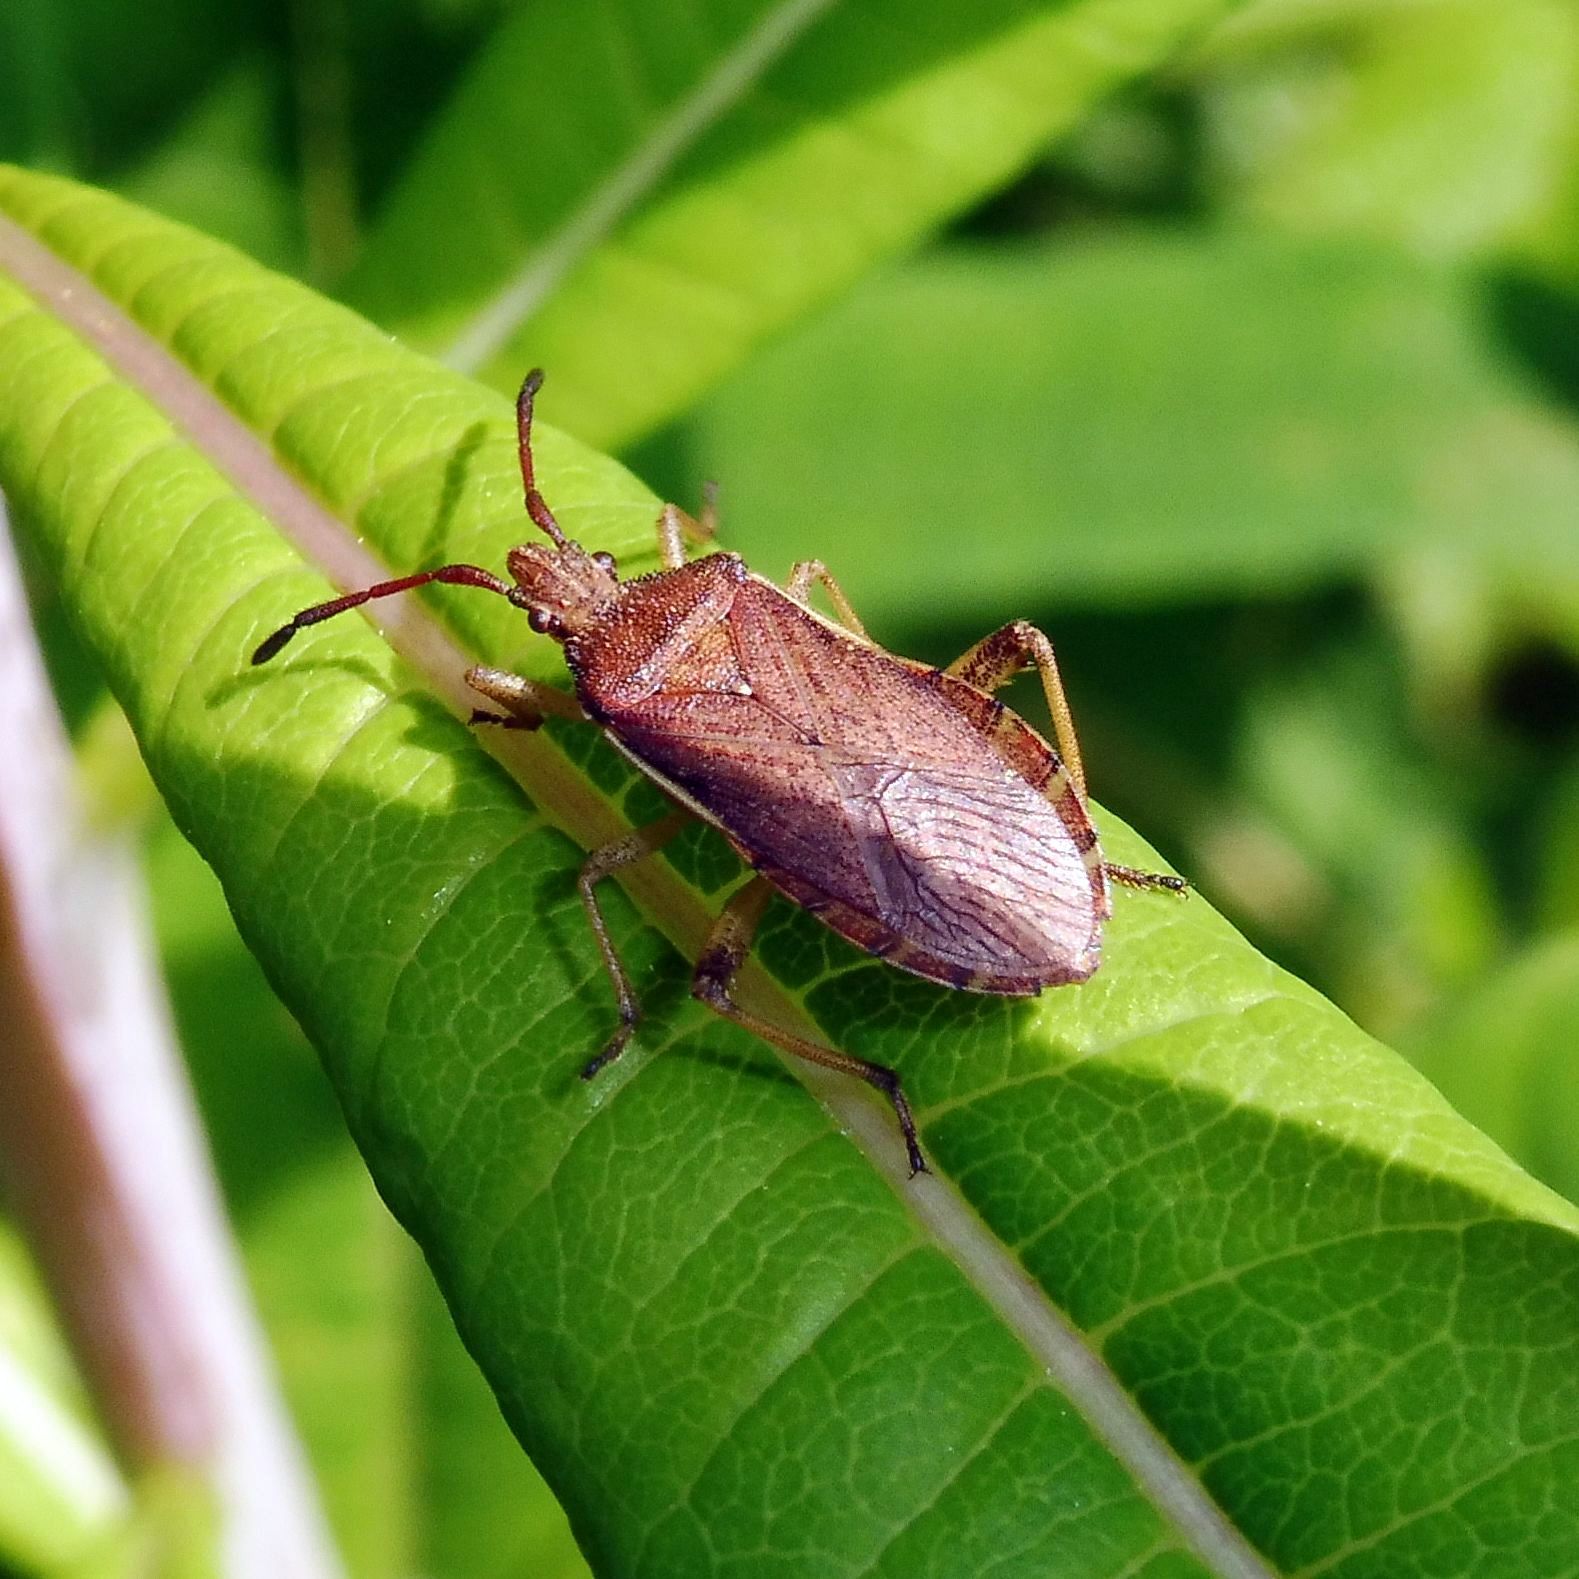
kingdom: Animalia
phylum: Arthropoda
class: Insecta
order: Hemiptera
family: Coreidae
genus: Ceraleptus
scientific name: Ceraleptus lividus
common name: Slender-horned leatherbug
